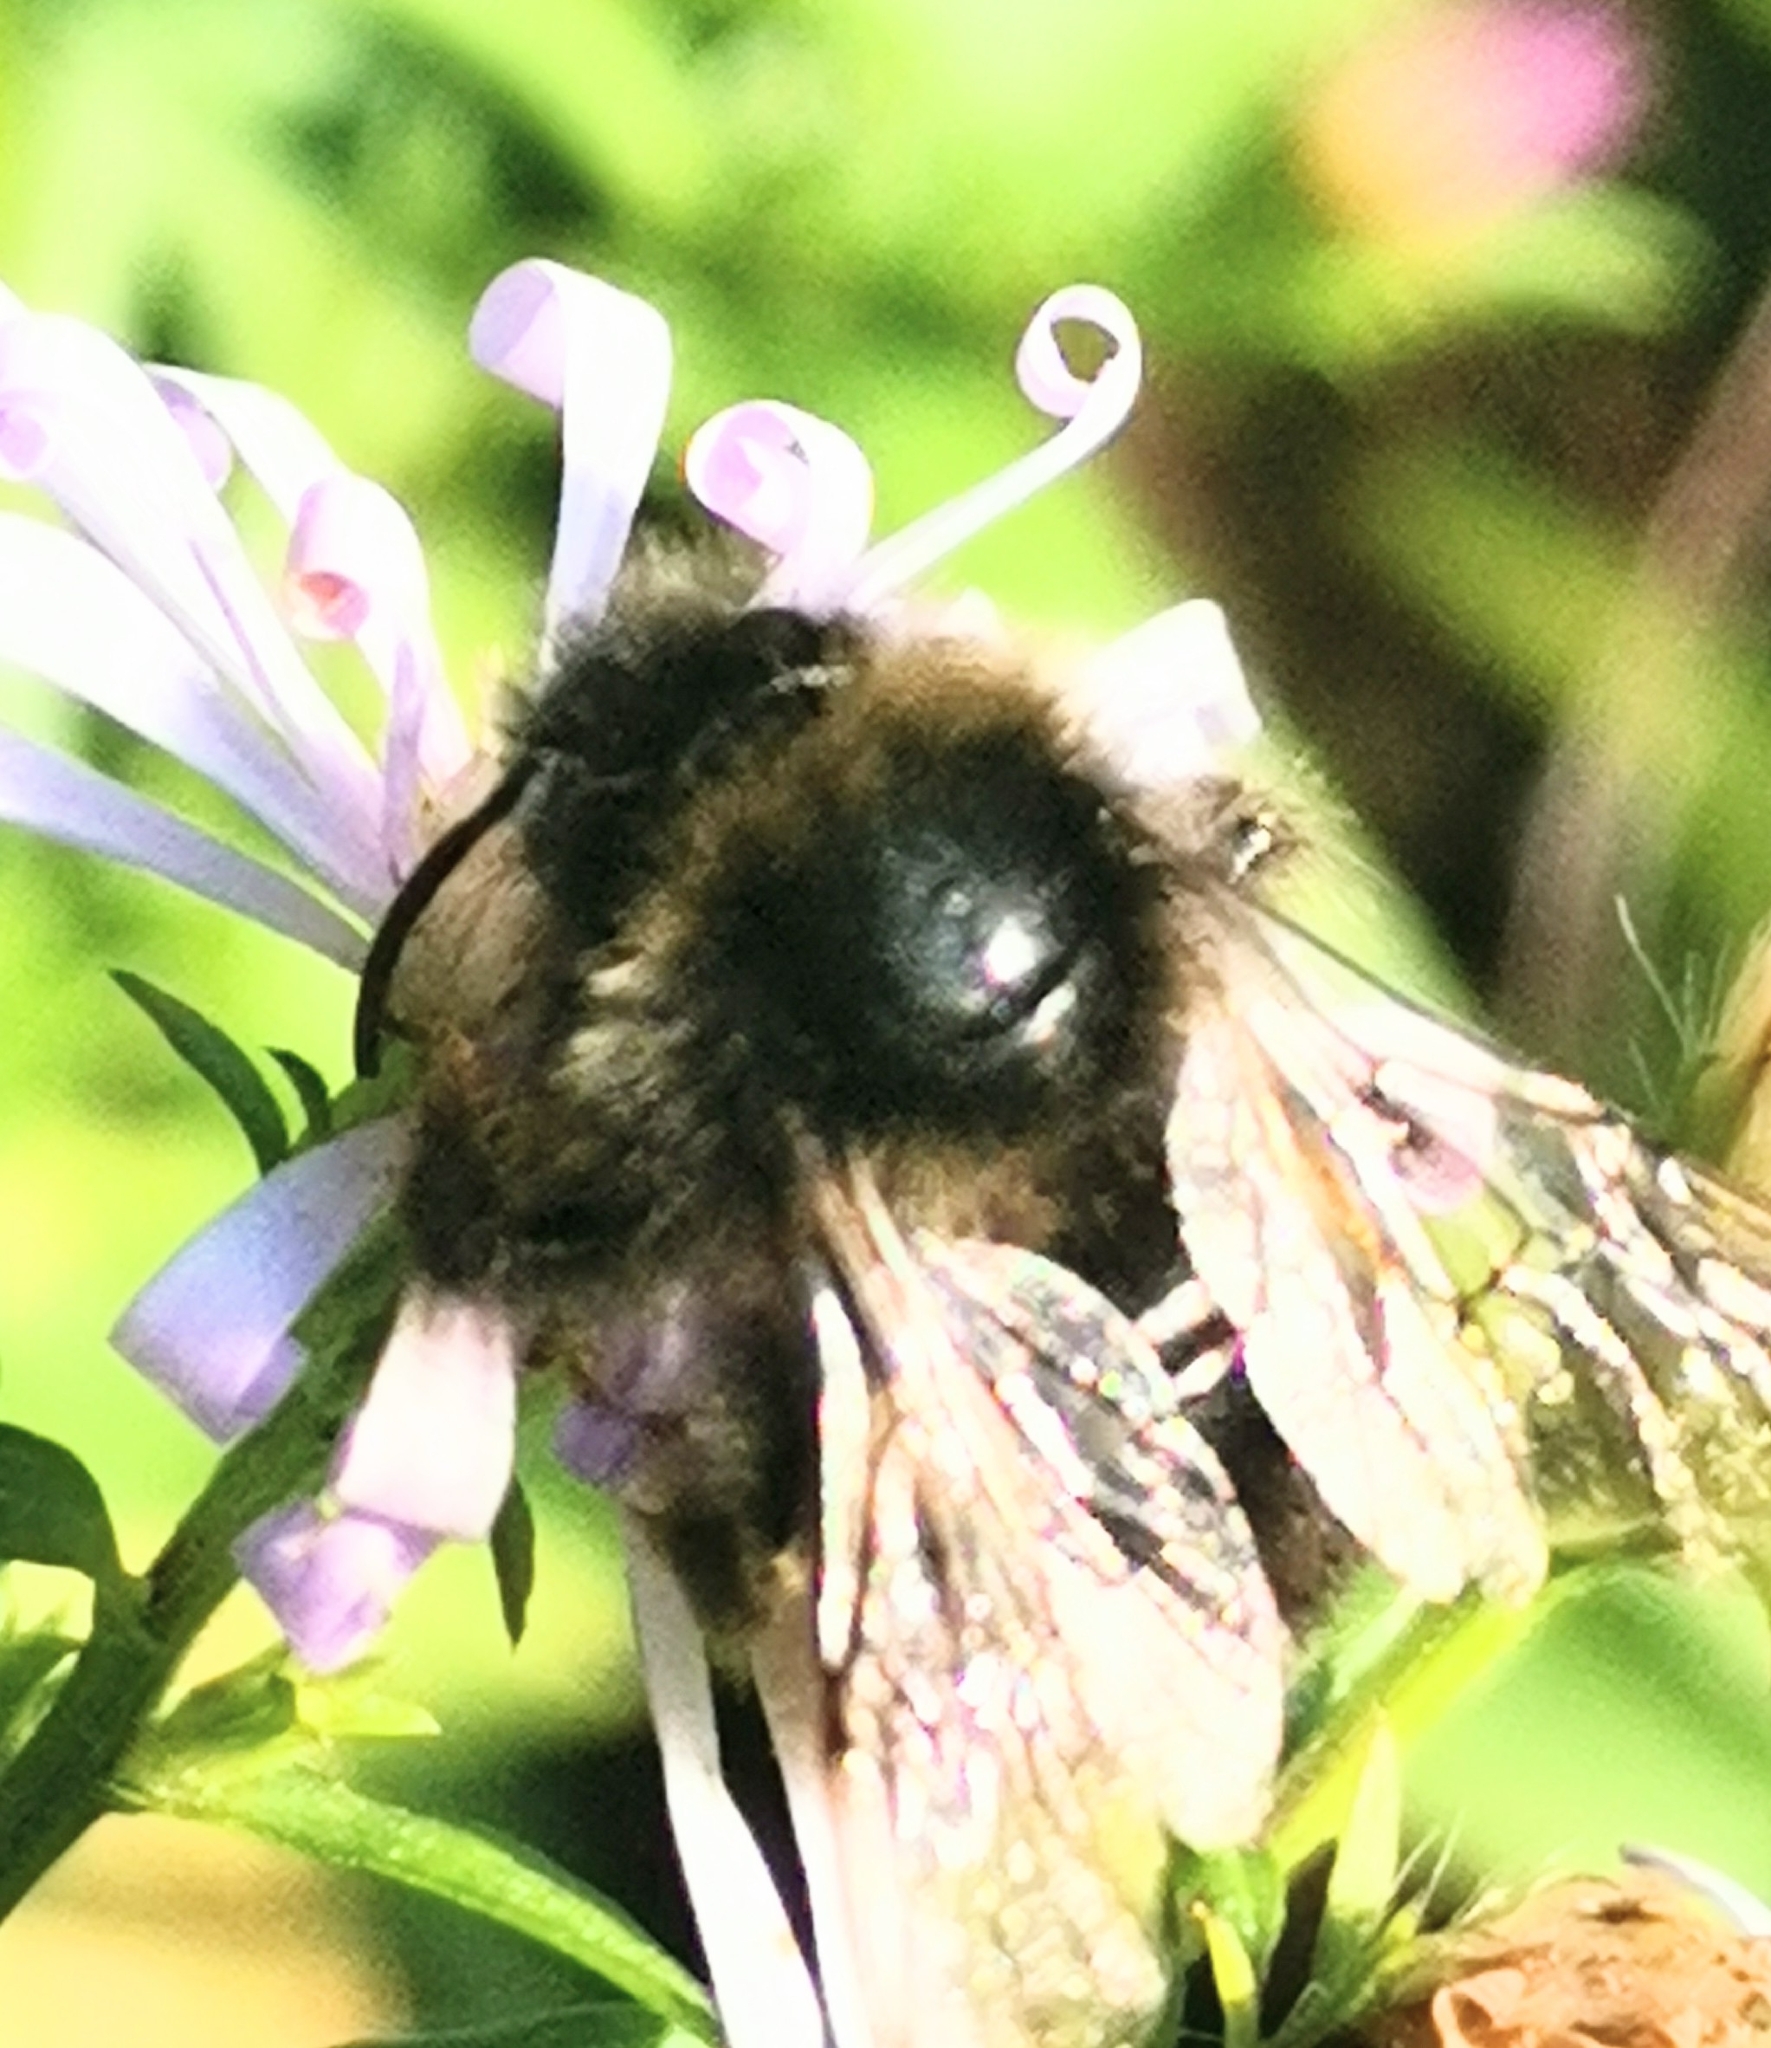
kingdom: Animalia
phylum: Arthropoda
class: Insecta
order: Hymenoptera
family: Apidae
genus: Bombus
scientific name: Bombus rupestris
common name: Hill cuckoo-bee
